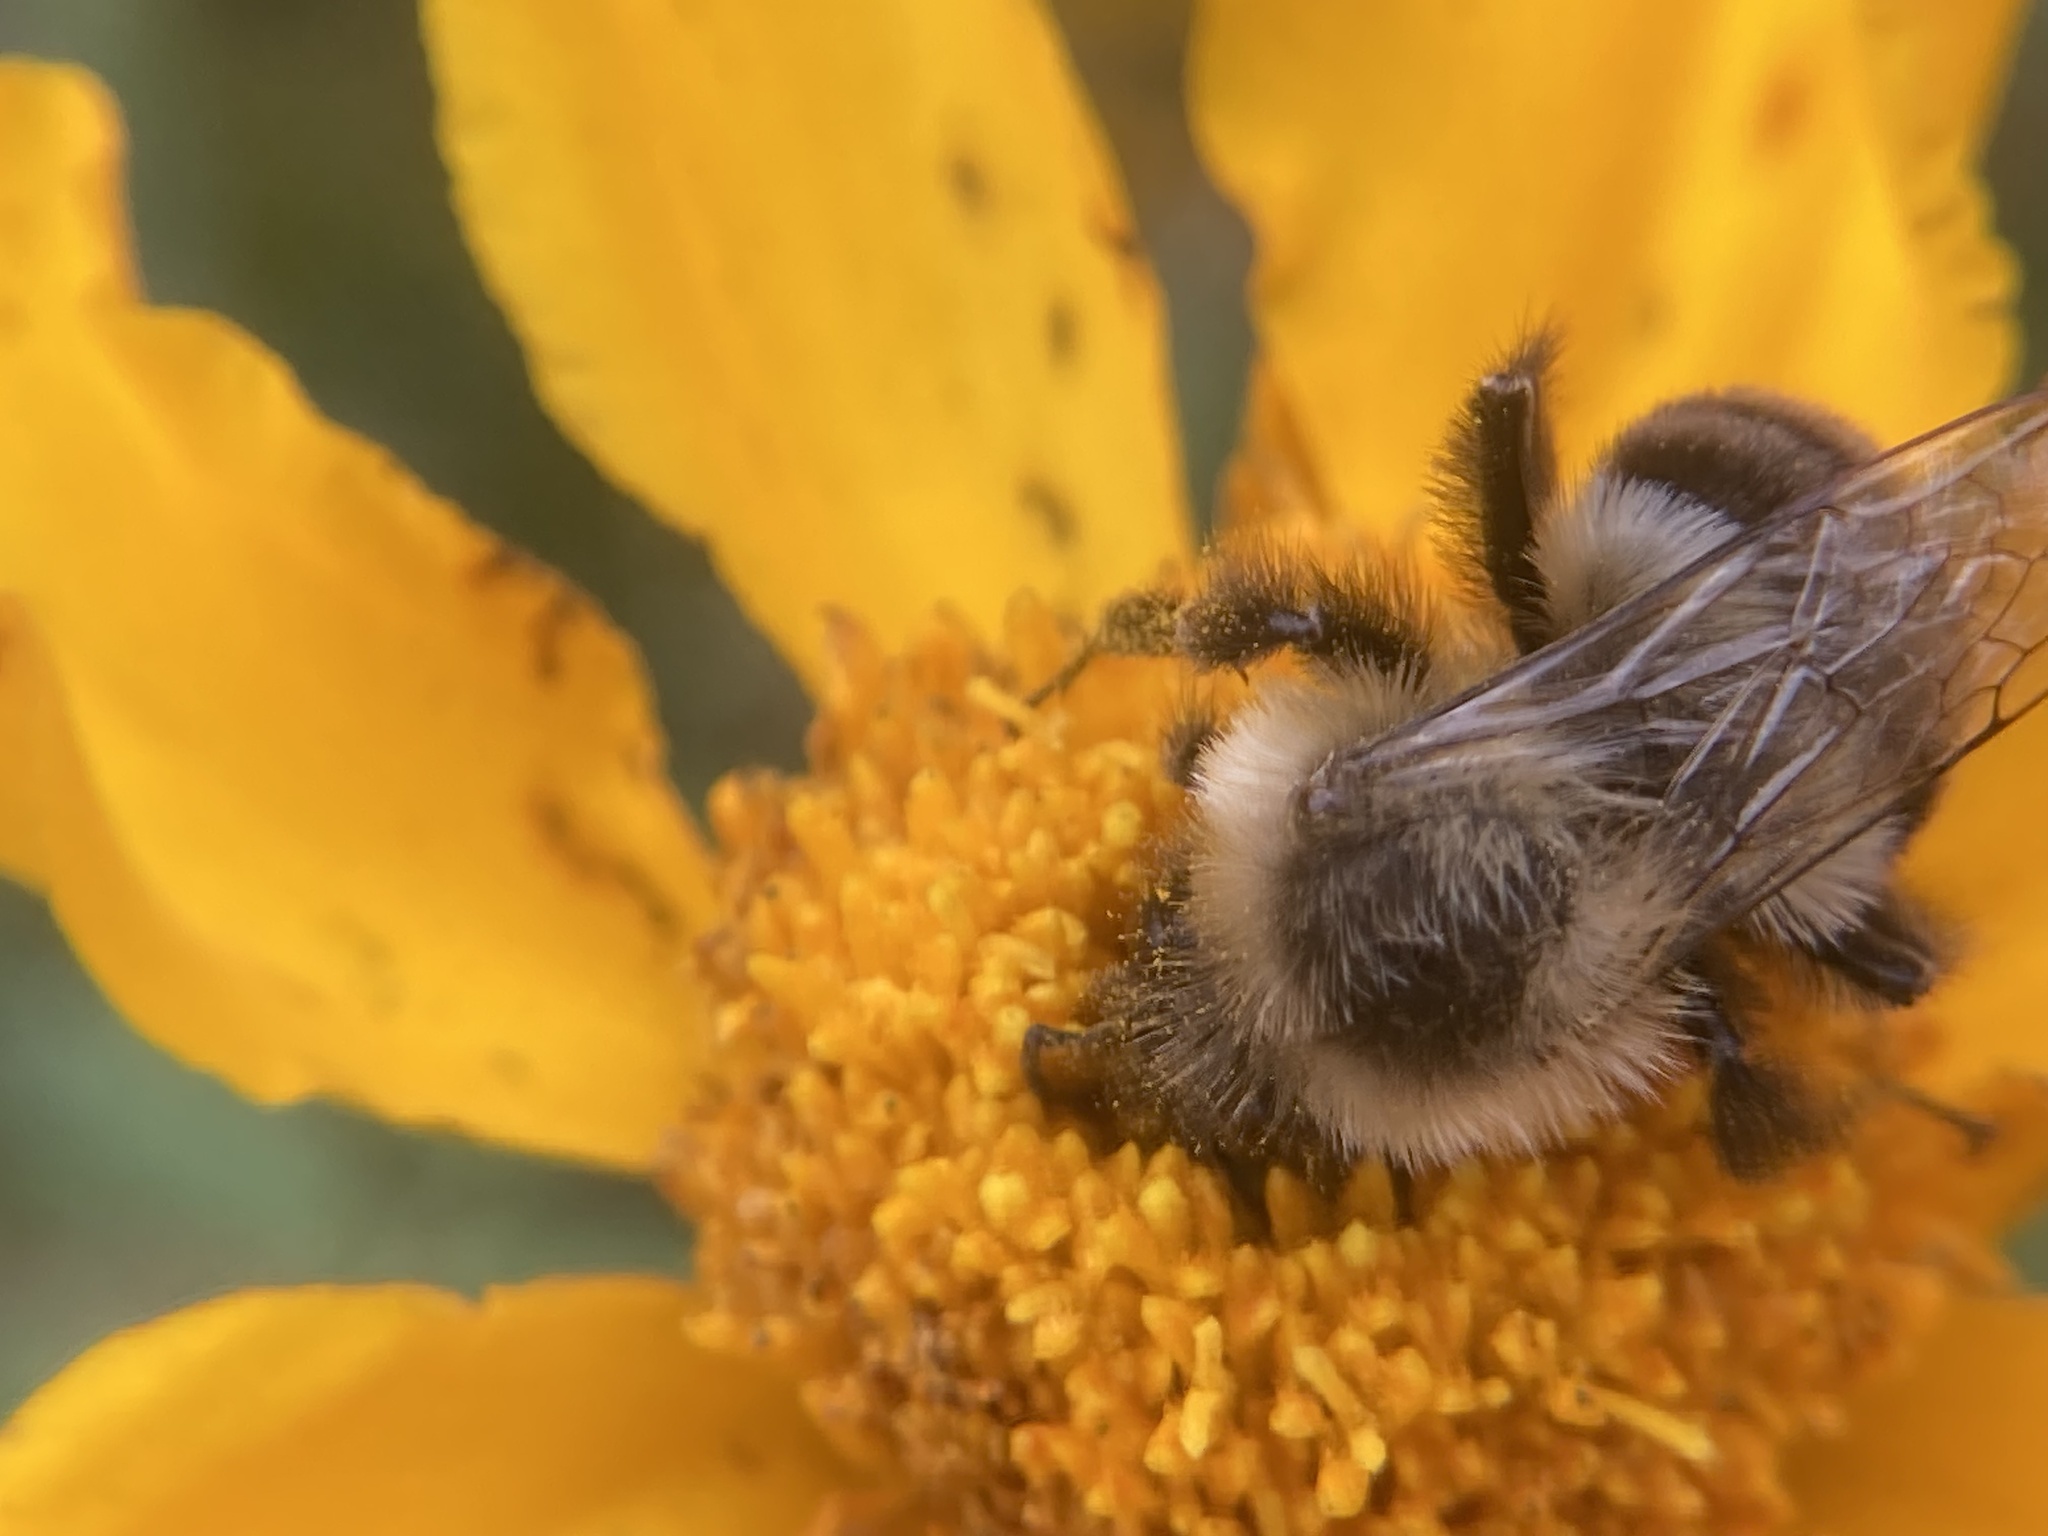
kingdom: Animalia
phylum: Arthropoda
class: Insecta
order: Hymenoptera
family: Apidae
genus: Bombus
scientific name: Bombus impatiens
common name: Common eastern bumble bee
